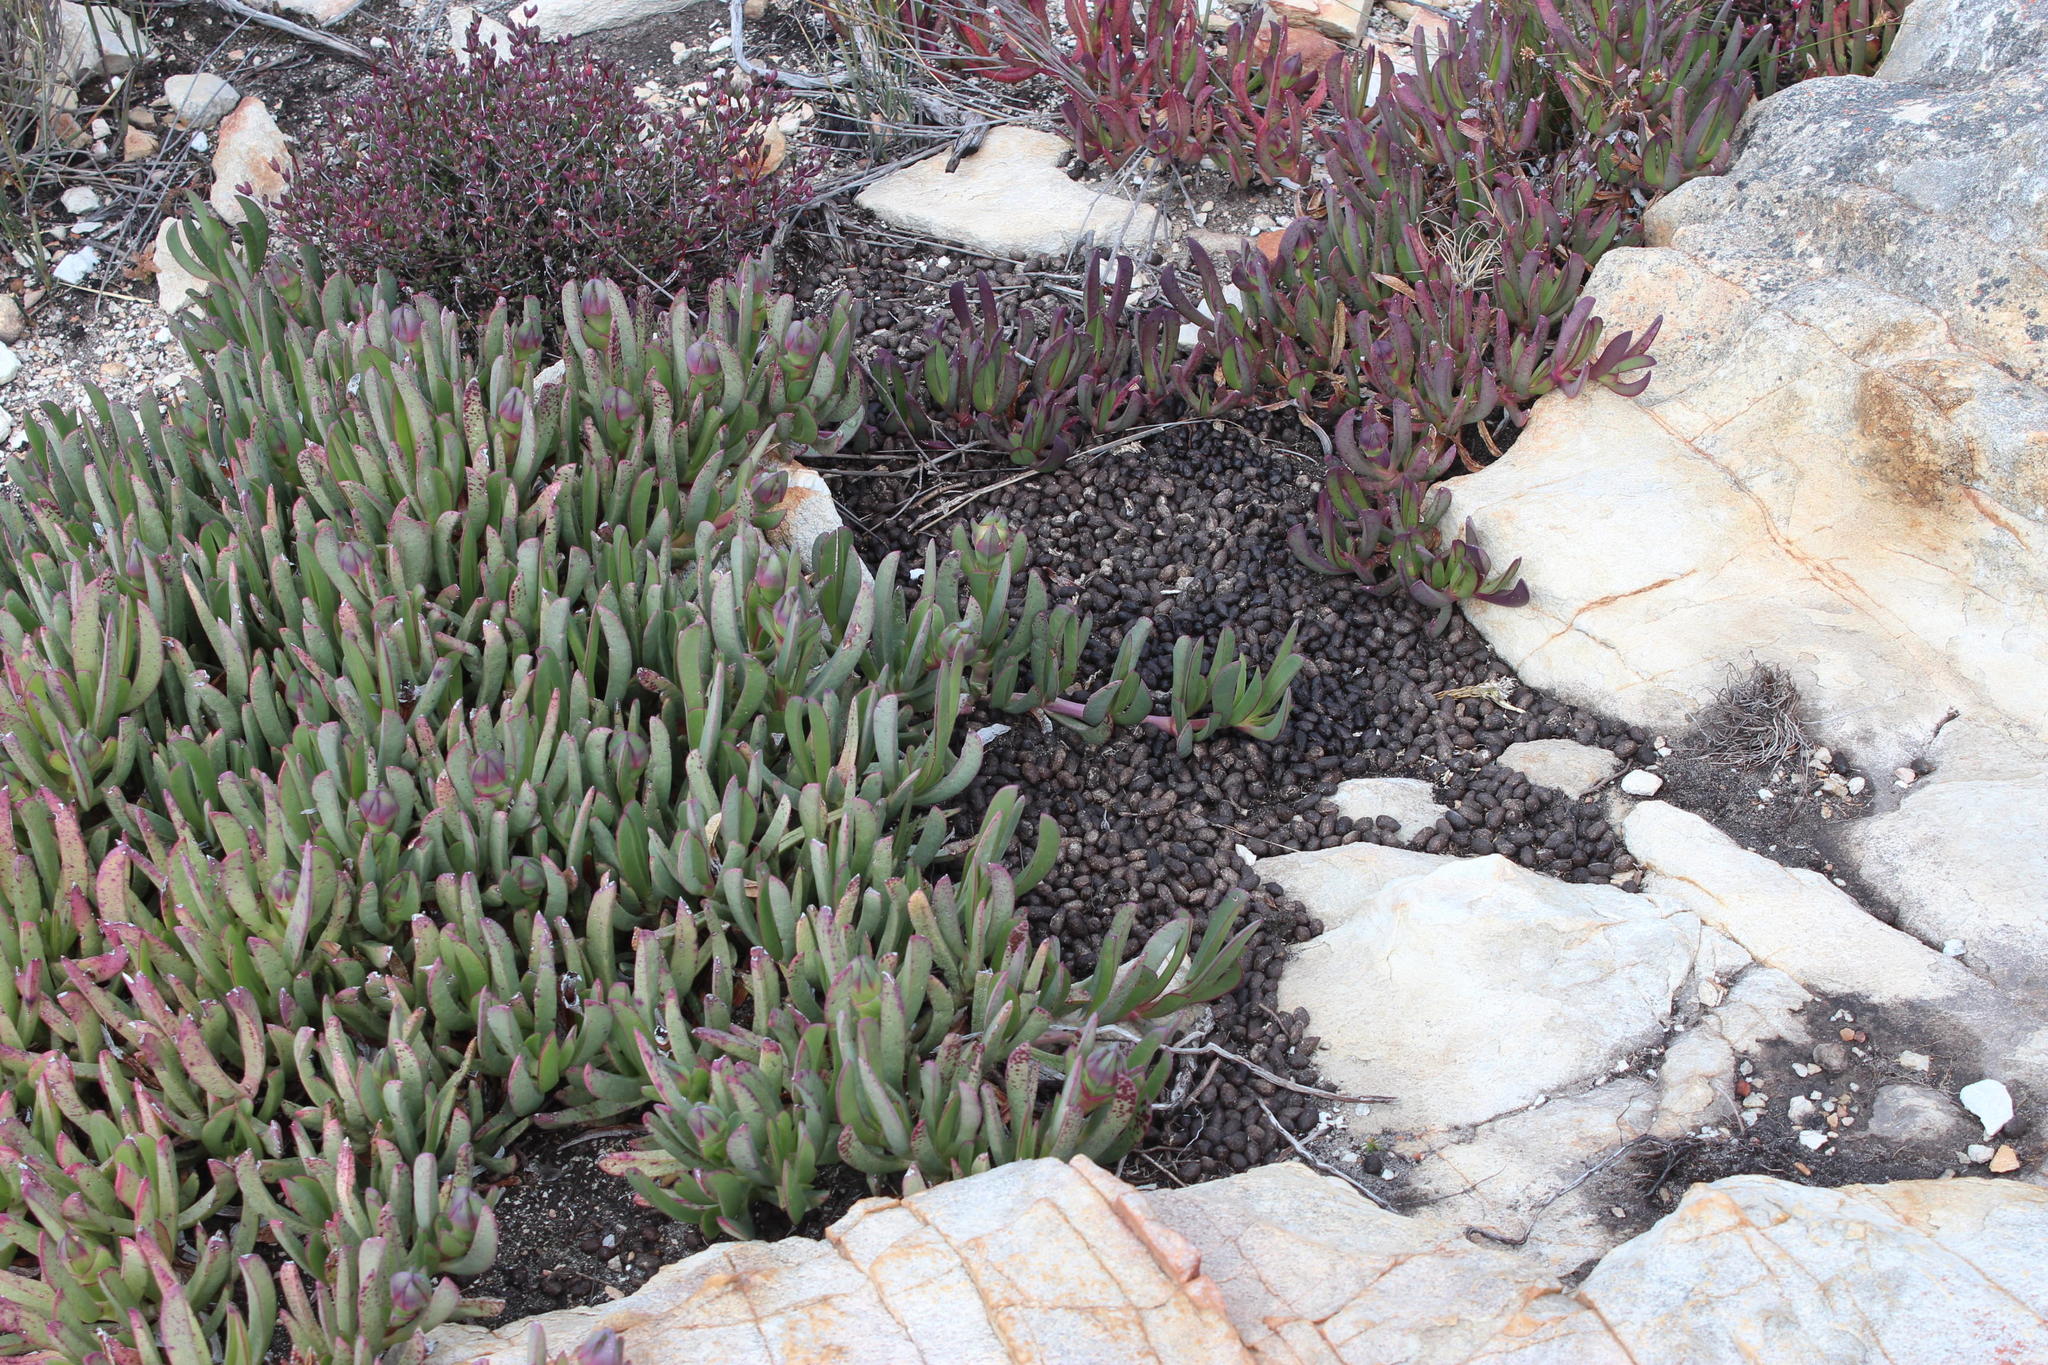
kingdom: Animalia
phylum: Chordata
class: Mammalia
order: Artiodactyla
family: Bovidae
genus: Oreotragus
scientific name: Oreotragus oreotragus
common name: Klipspringer
